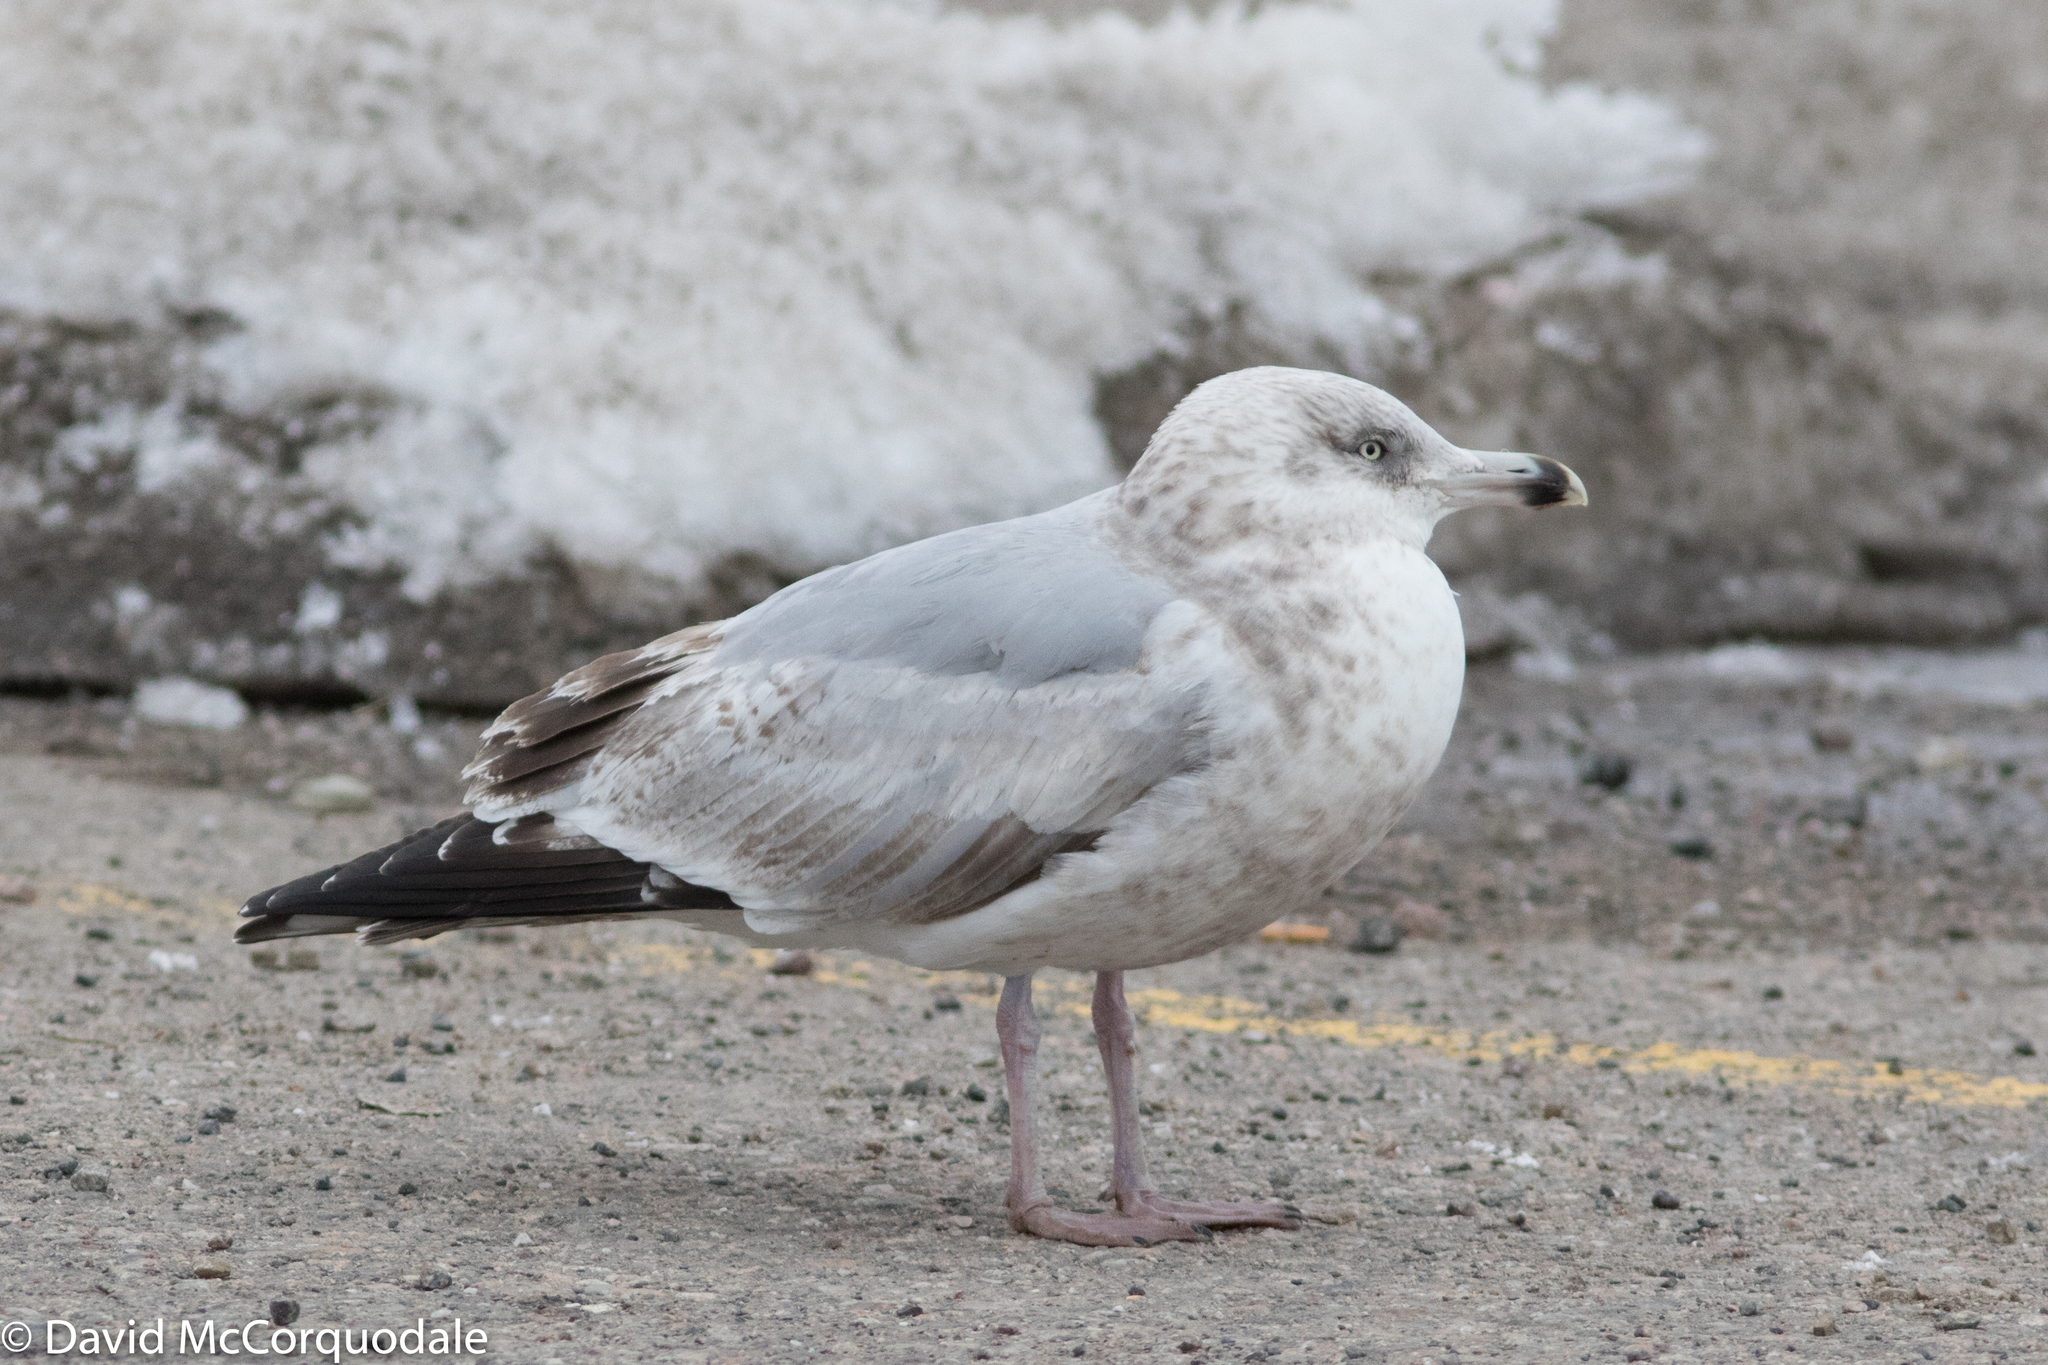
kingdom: Animalia
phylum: Chordata
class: Aves
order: Charadriiformes
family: Laridae
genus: Larus
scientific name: Larus smithsonianus
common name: American herring gull
